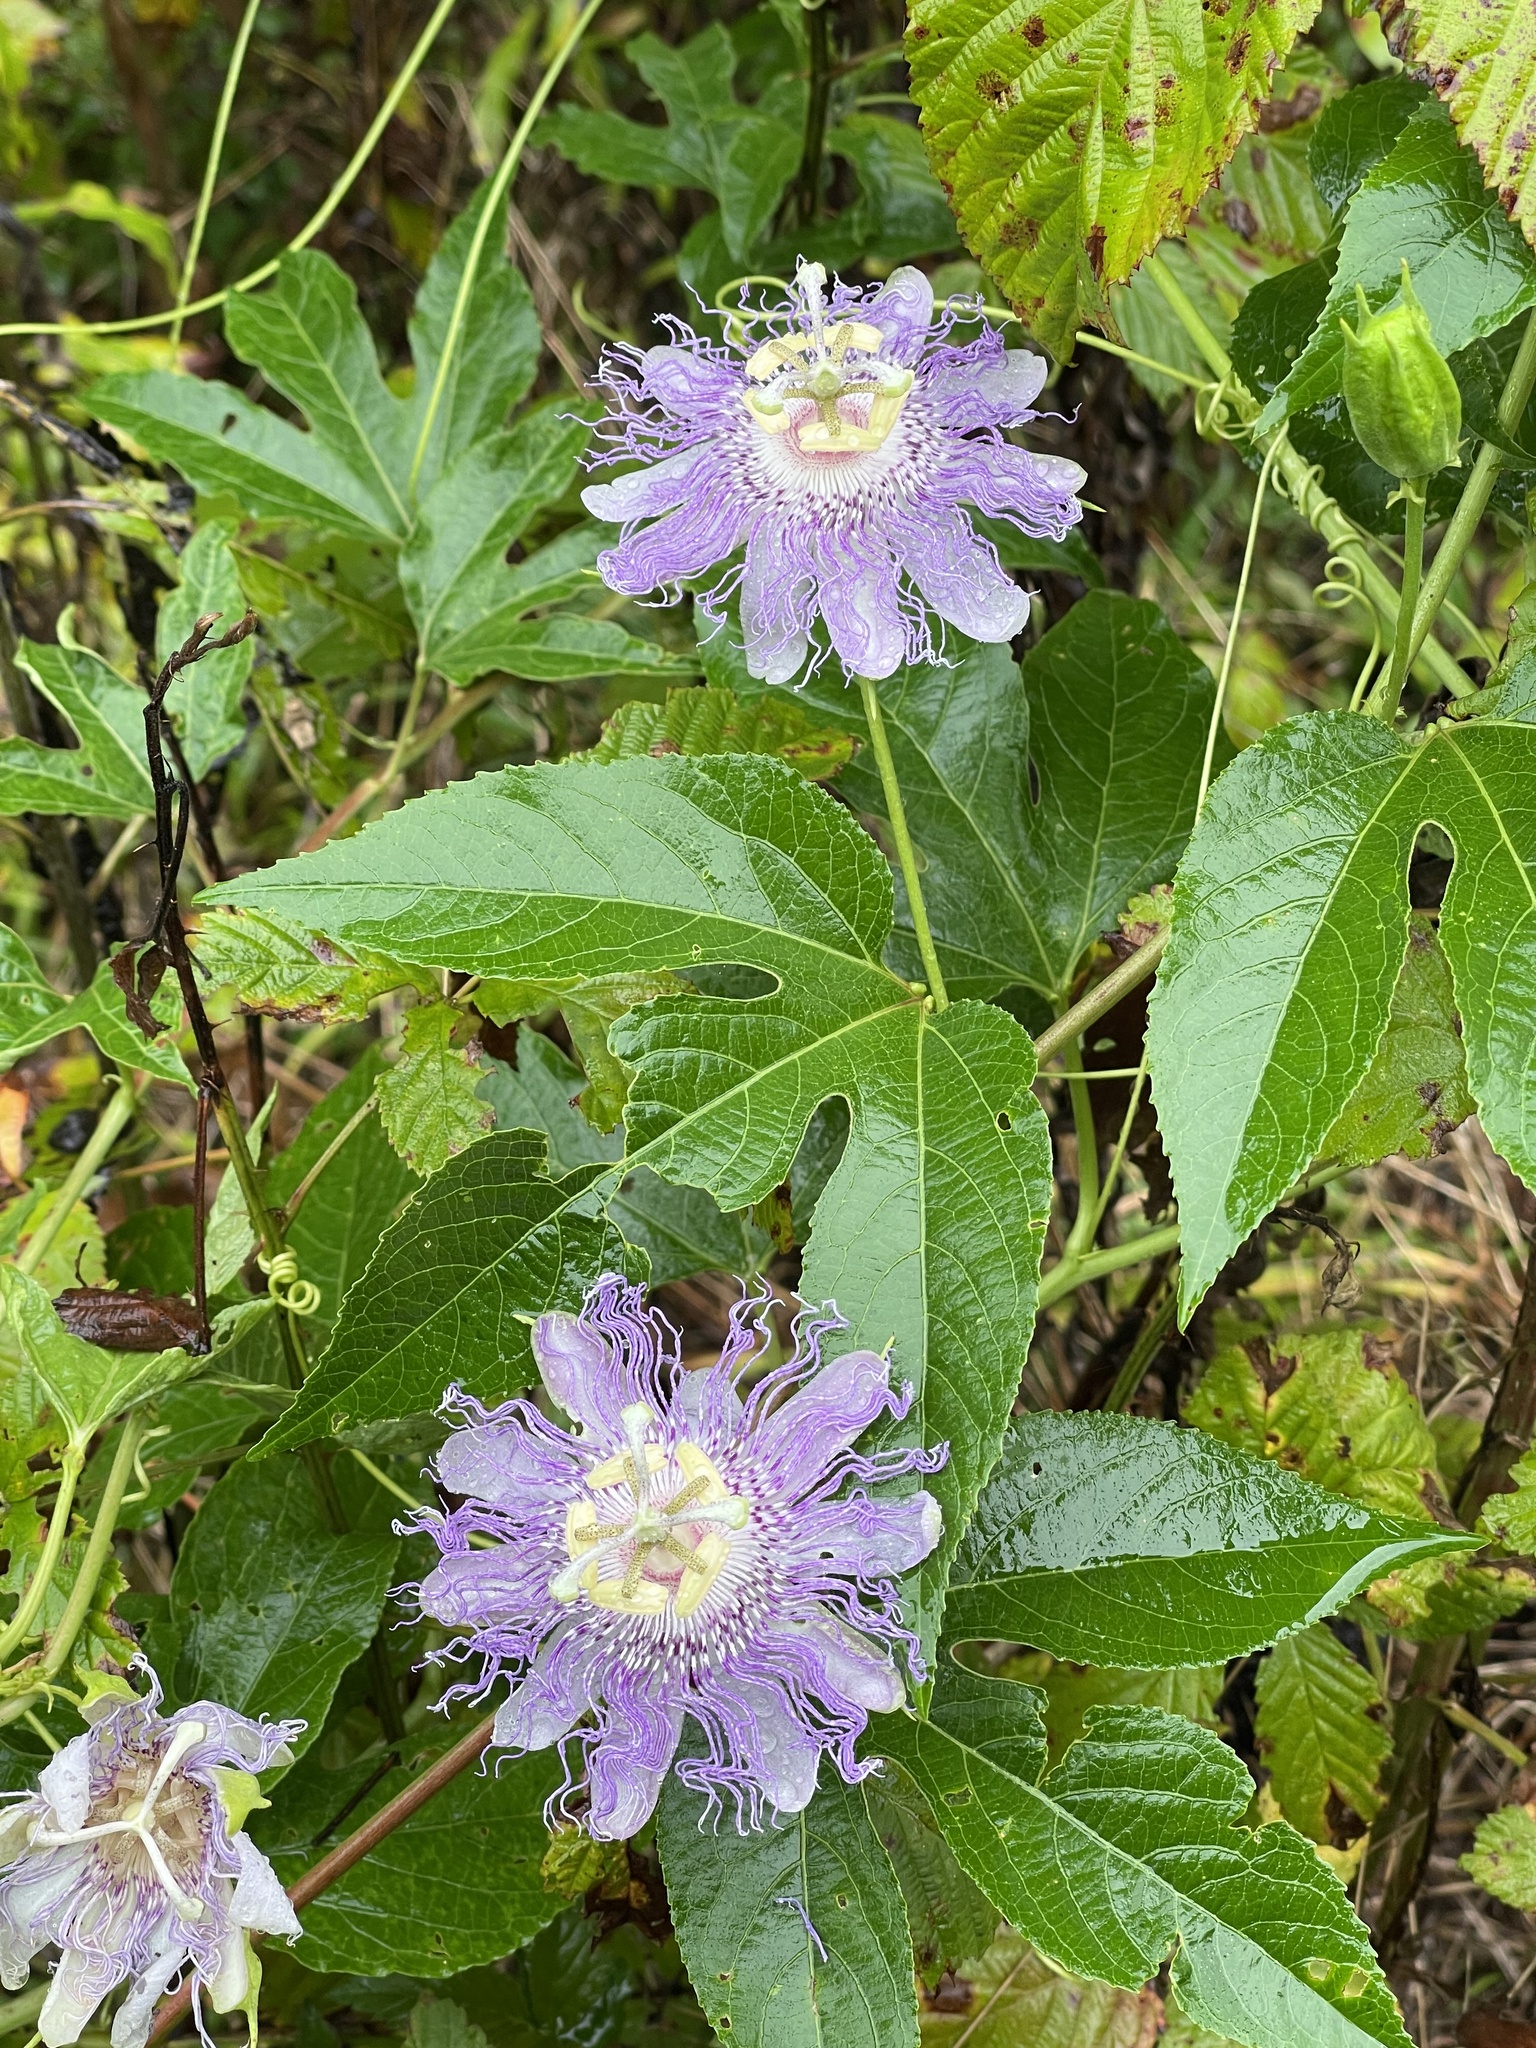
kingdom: Plantae
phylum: Tracheophyta
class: Magnoliopsida
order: Malpighiales
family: Passifloraceae
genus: Passiflora
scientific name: Passiflora incarnata
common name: Apricot-vine
